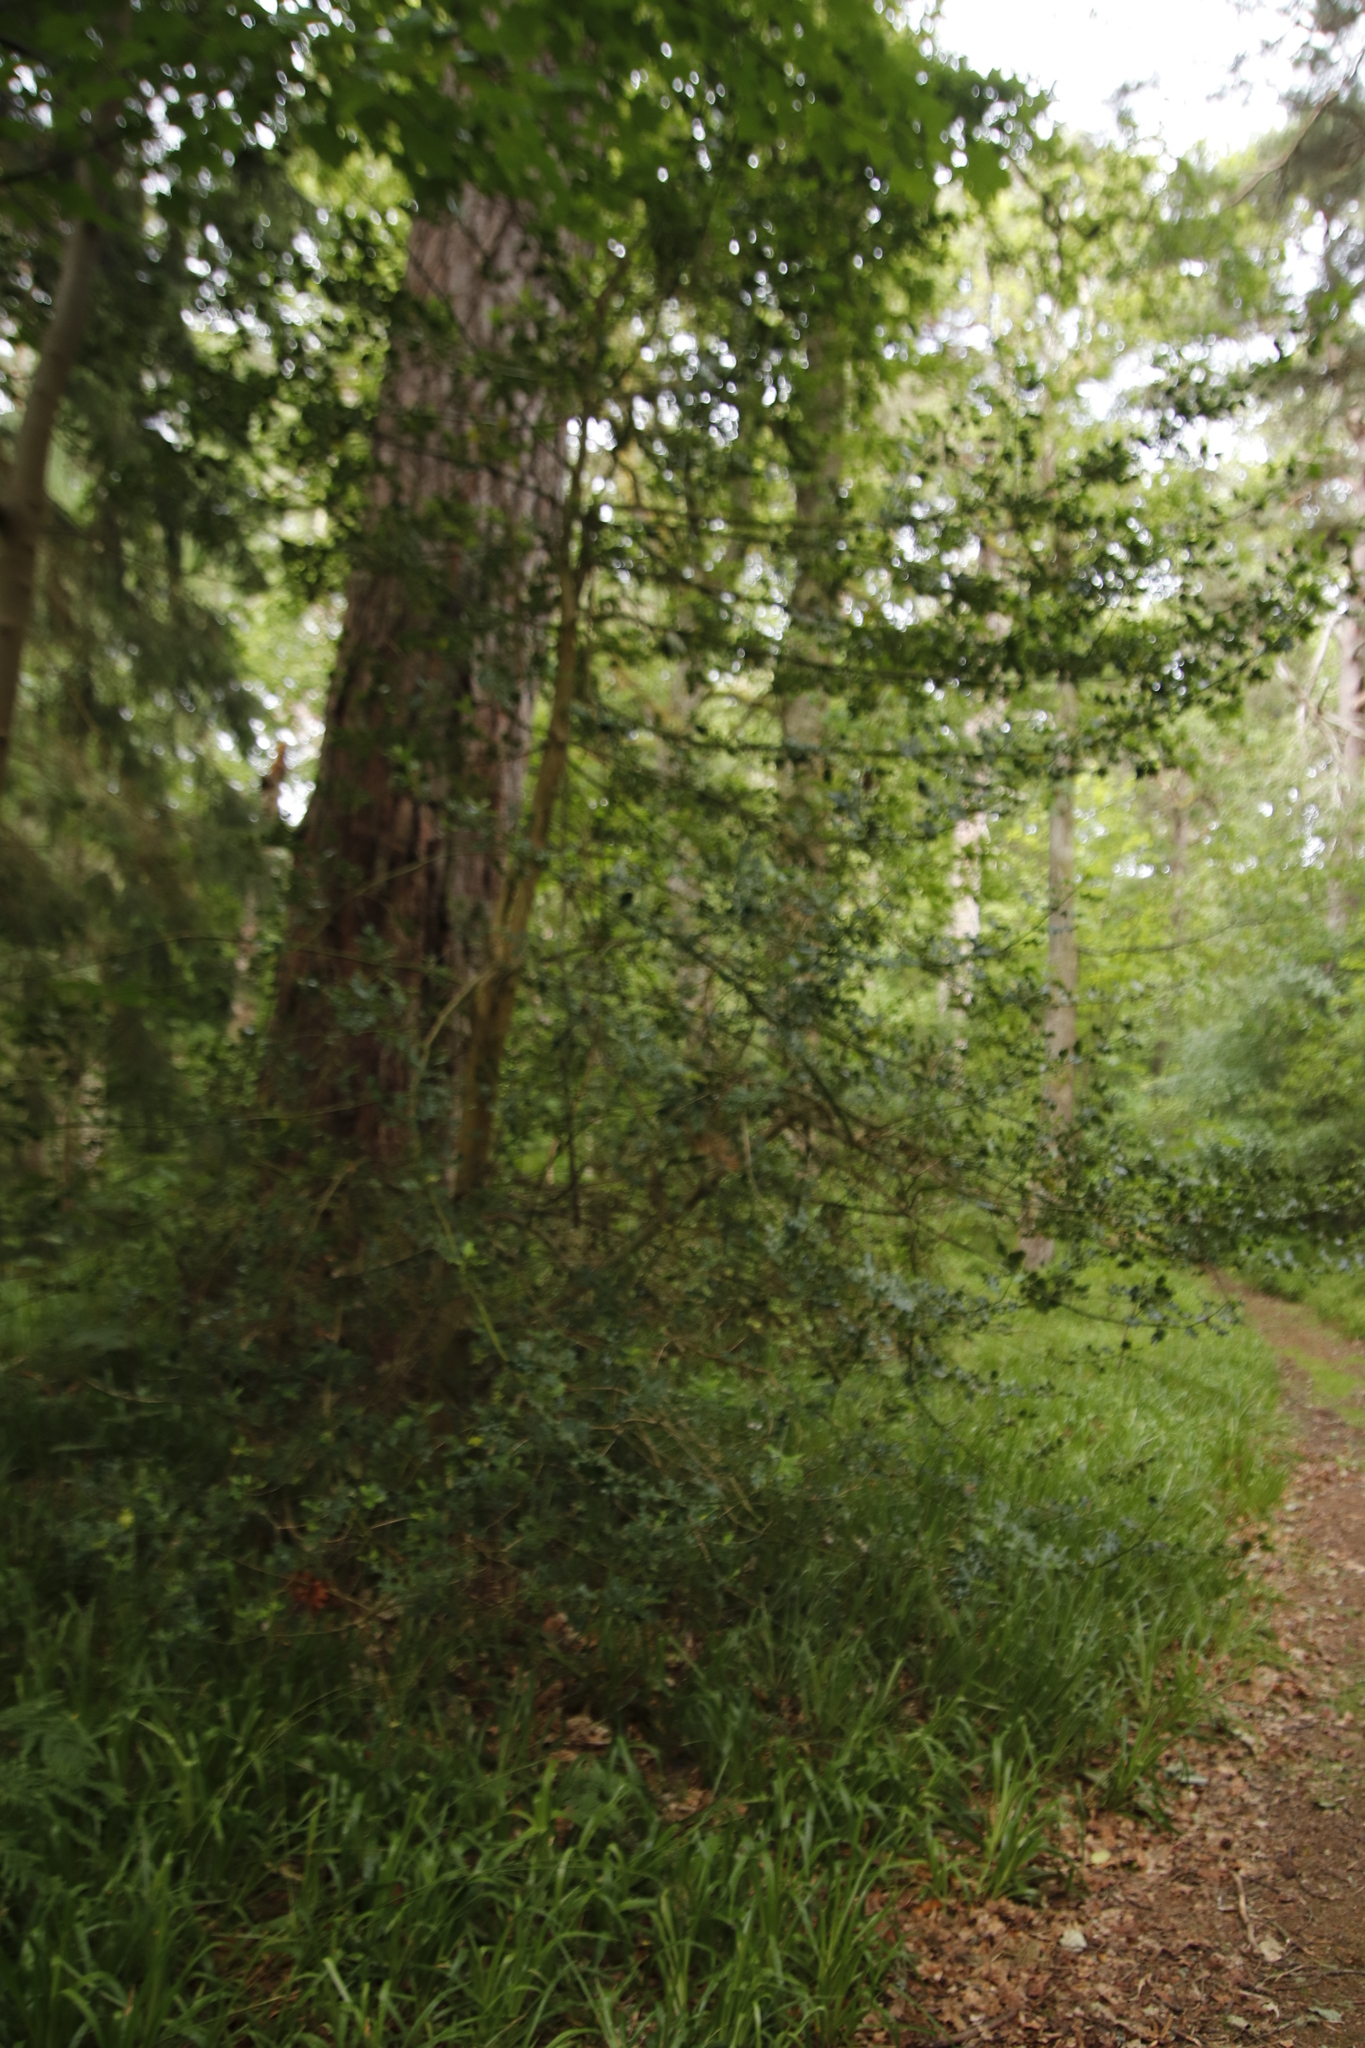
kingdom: Plantae
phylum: Tracheophyta
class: Magnoliopsida
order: Aquifoliales
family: Aquifoliaceae
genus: Ilex
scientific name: Ilex aquifolium
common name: English holly
